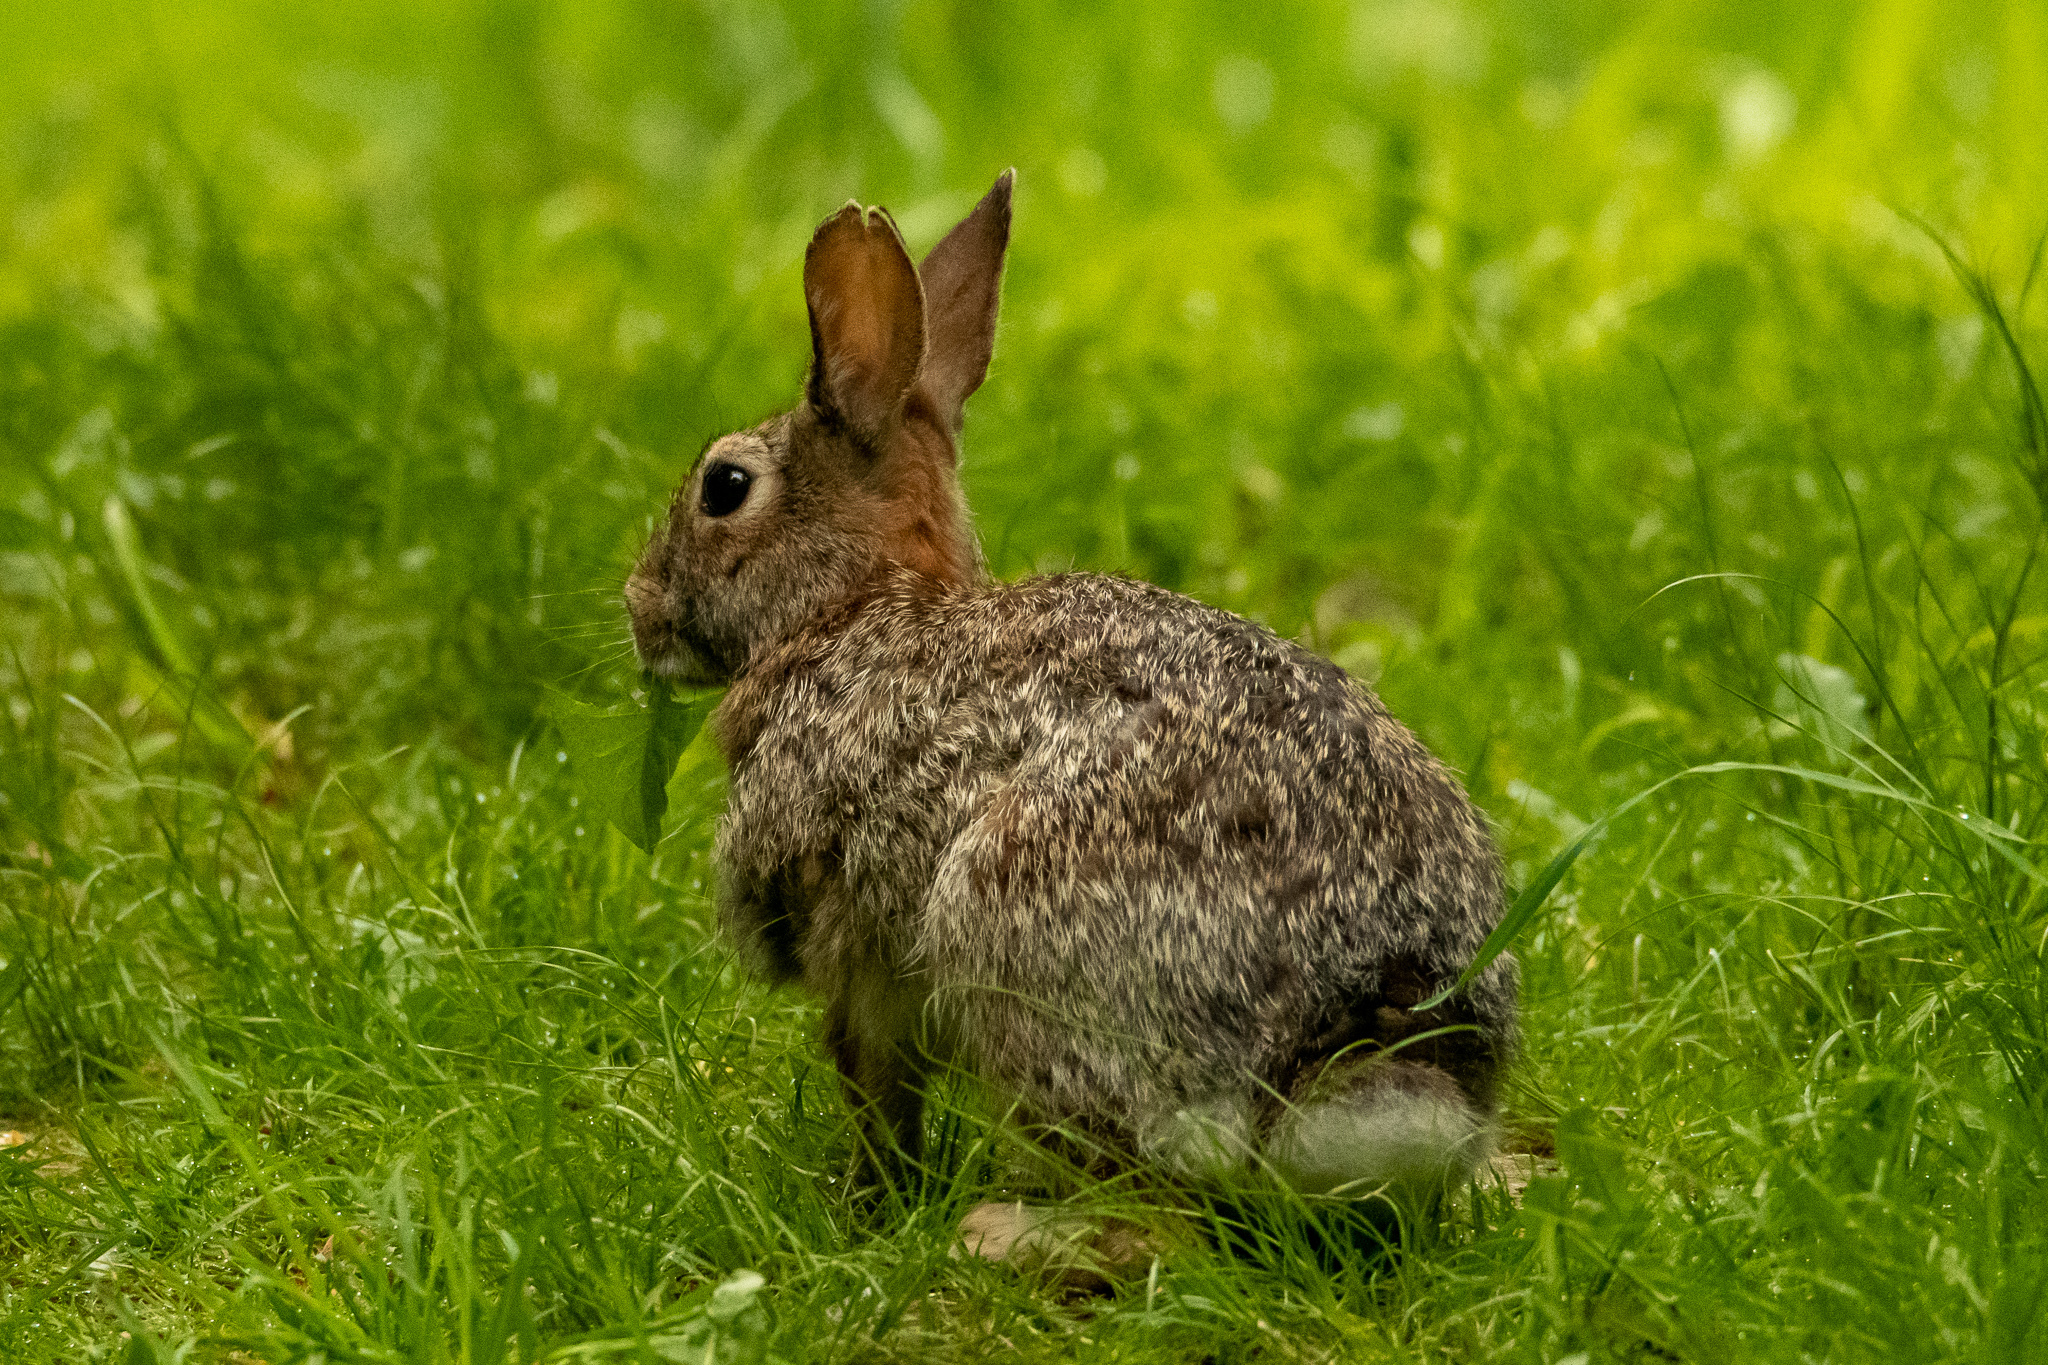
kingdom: Animalia
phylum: Chordata
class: Mammalia
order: Lagomorpha
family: Leporidae
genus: Sylvilagus
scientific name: Sylvilagus floridanus
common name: Eastern cottontail
